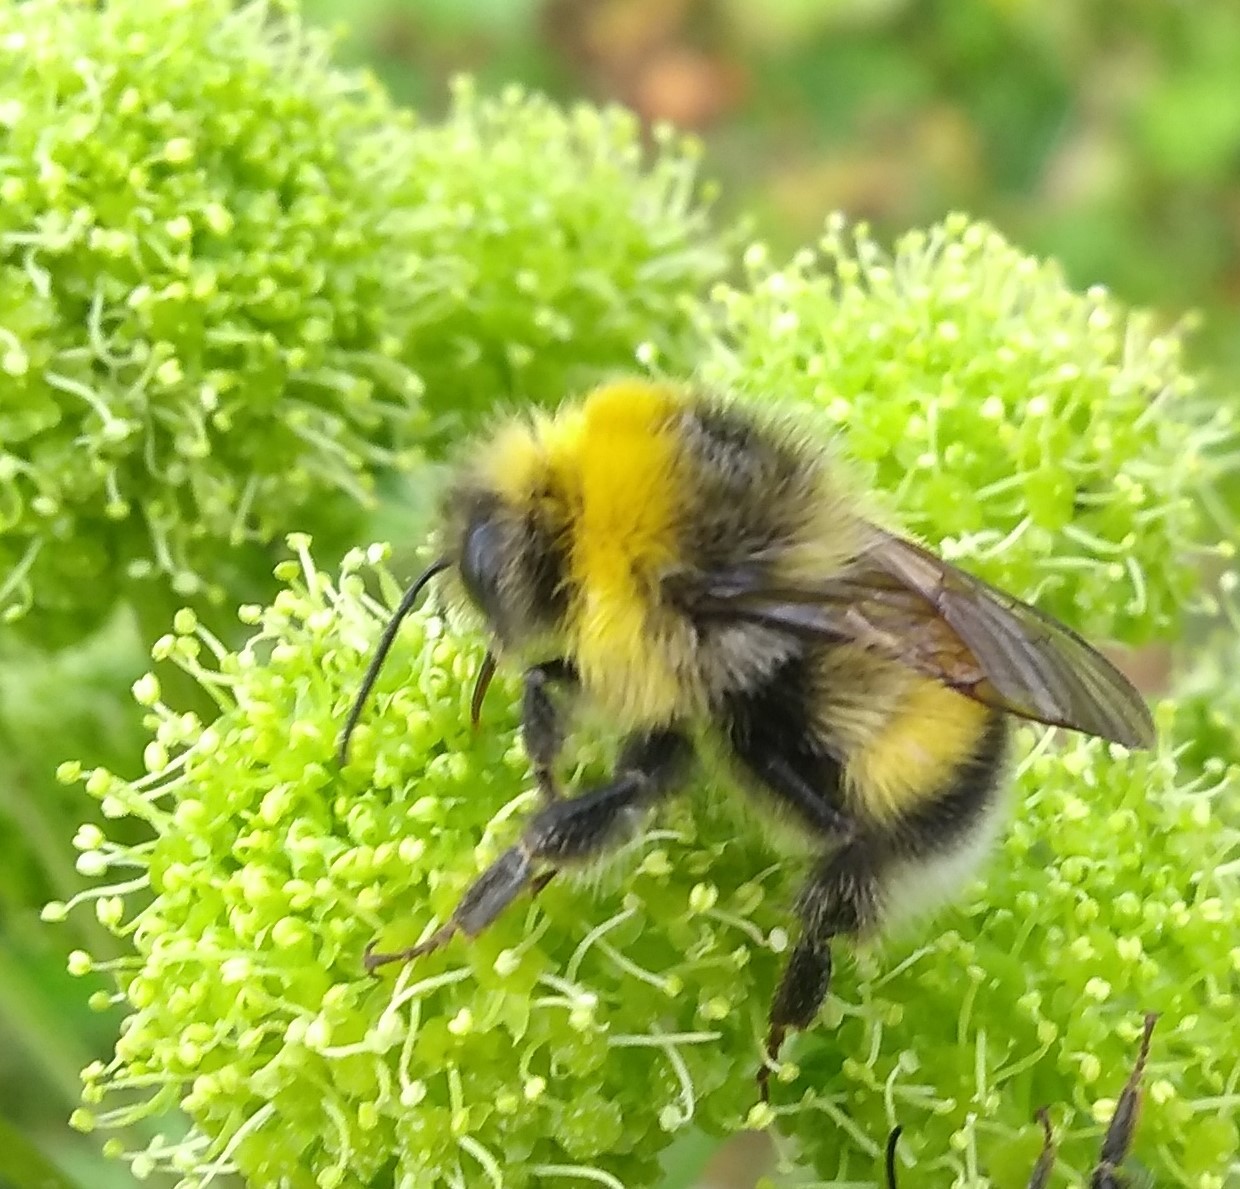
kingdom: Animalia
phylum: Arthropoda
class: Insecta
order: Hymenoptera
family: Apidae
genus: Bombus
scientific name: Bombus lucorum
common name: White-tailed bumblebee
